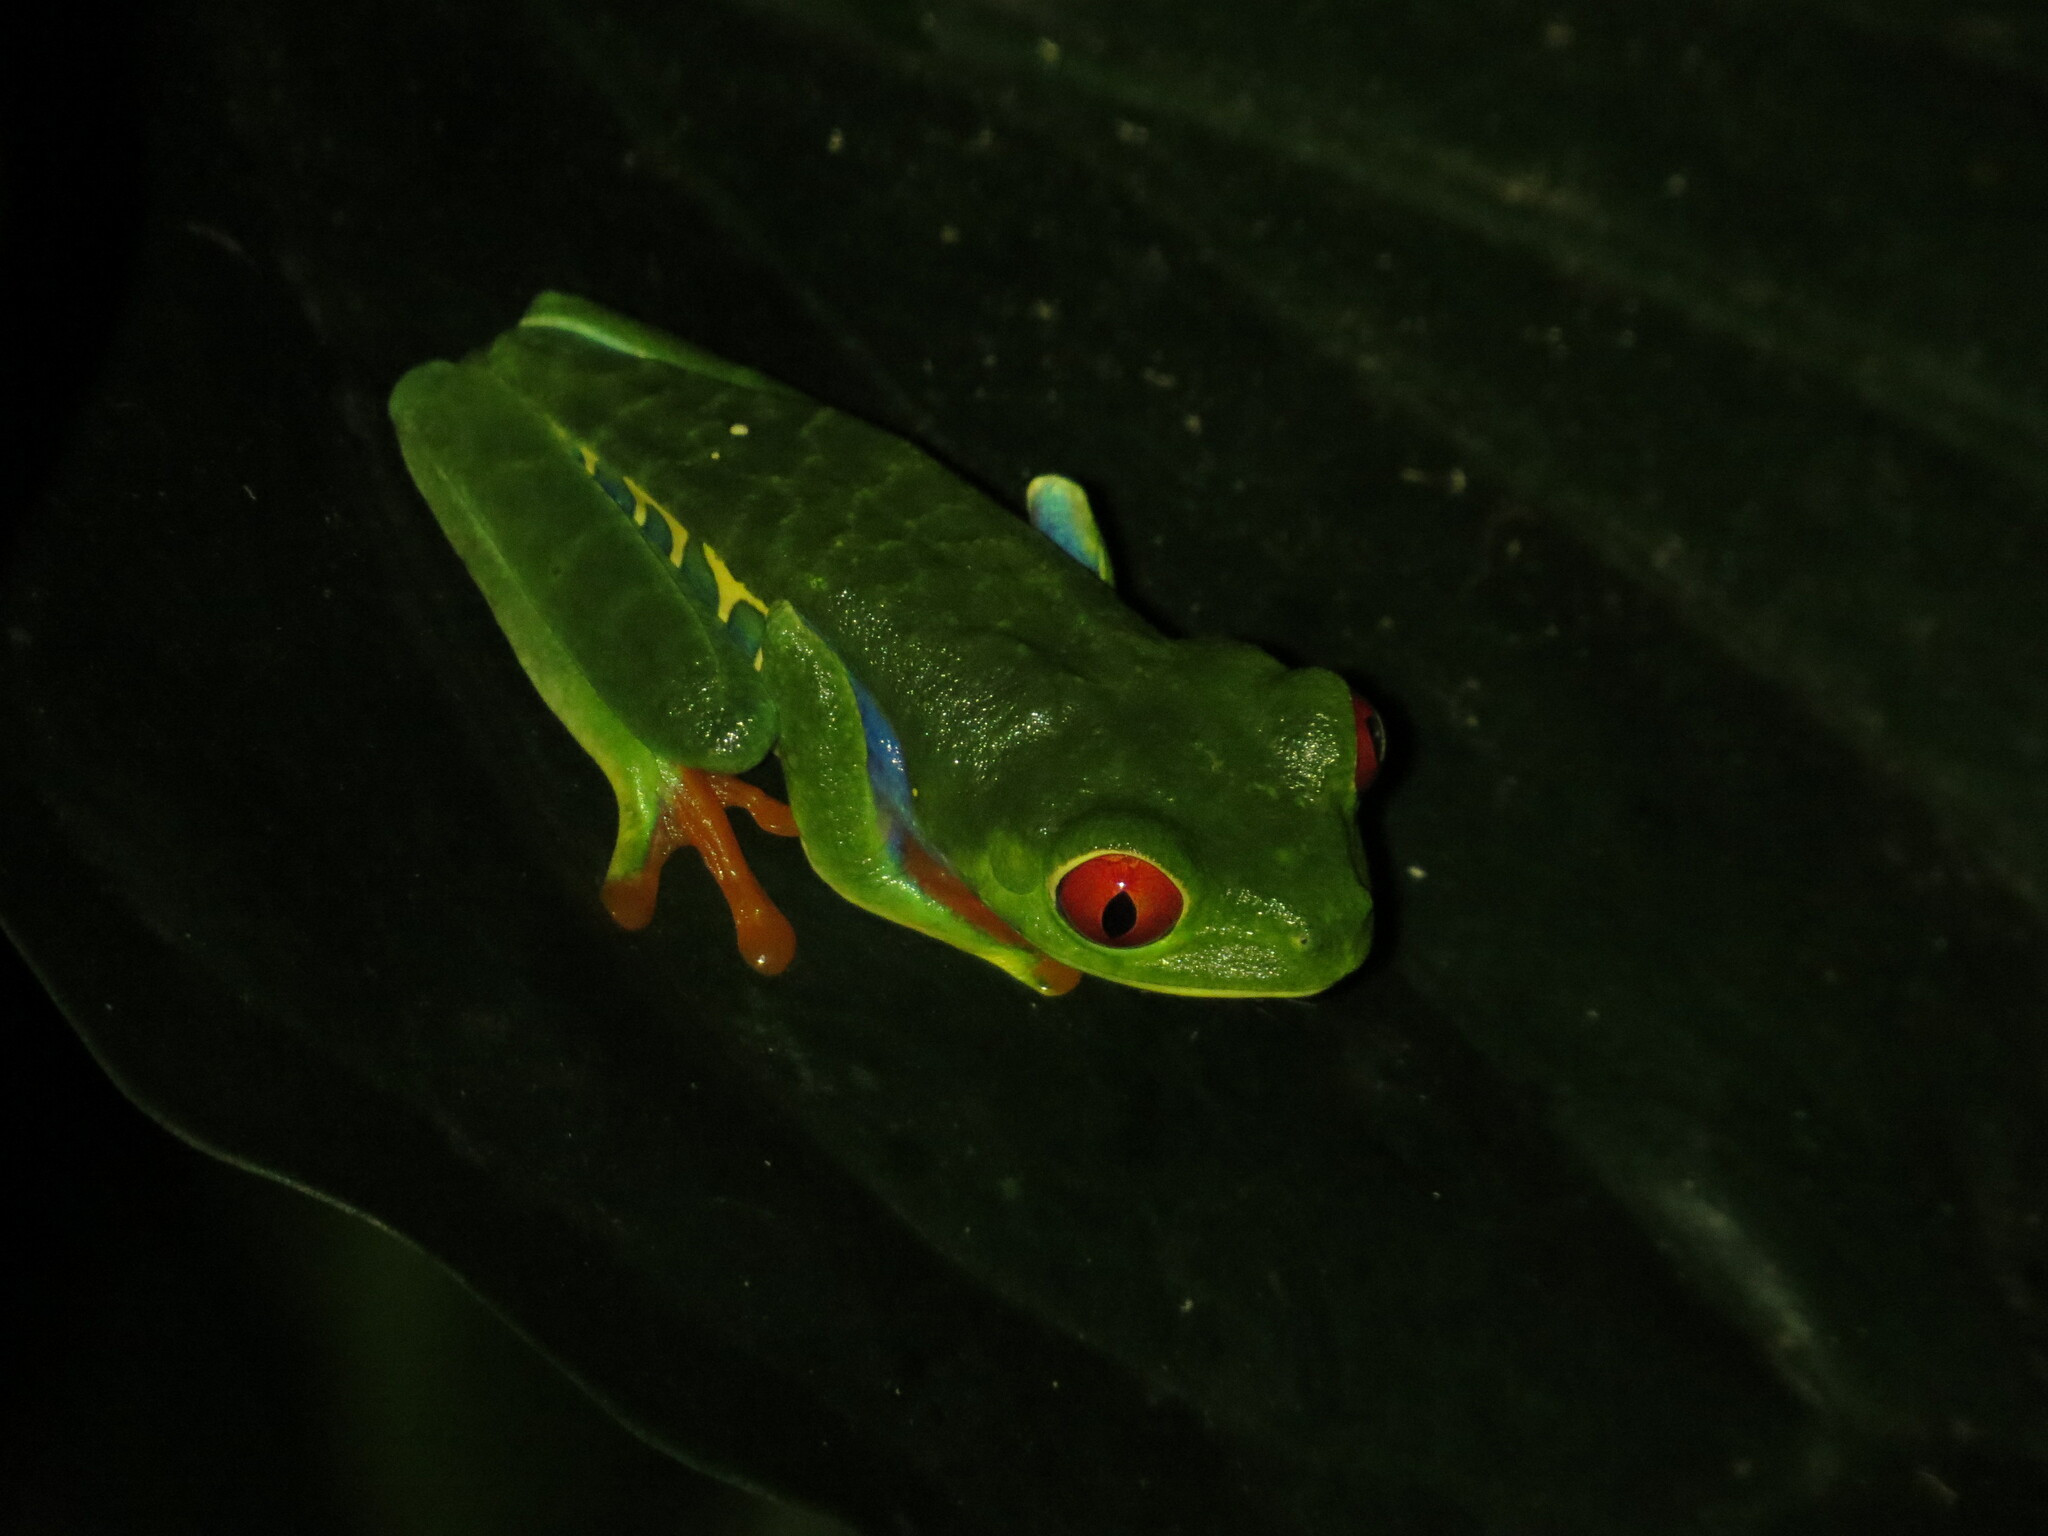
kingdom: Animalia
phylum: Chordata
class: Amphibia
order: Anura
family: Phyllomedusidae
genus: Agalychnis
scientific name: Agalychnis callidryas
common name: Red-eyed treefrog
